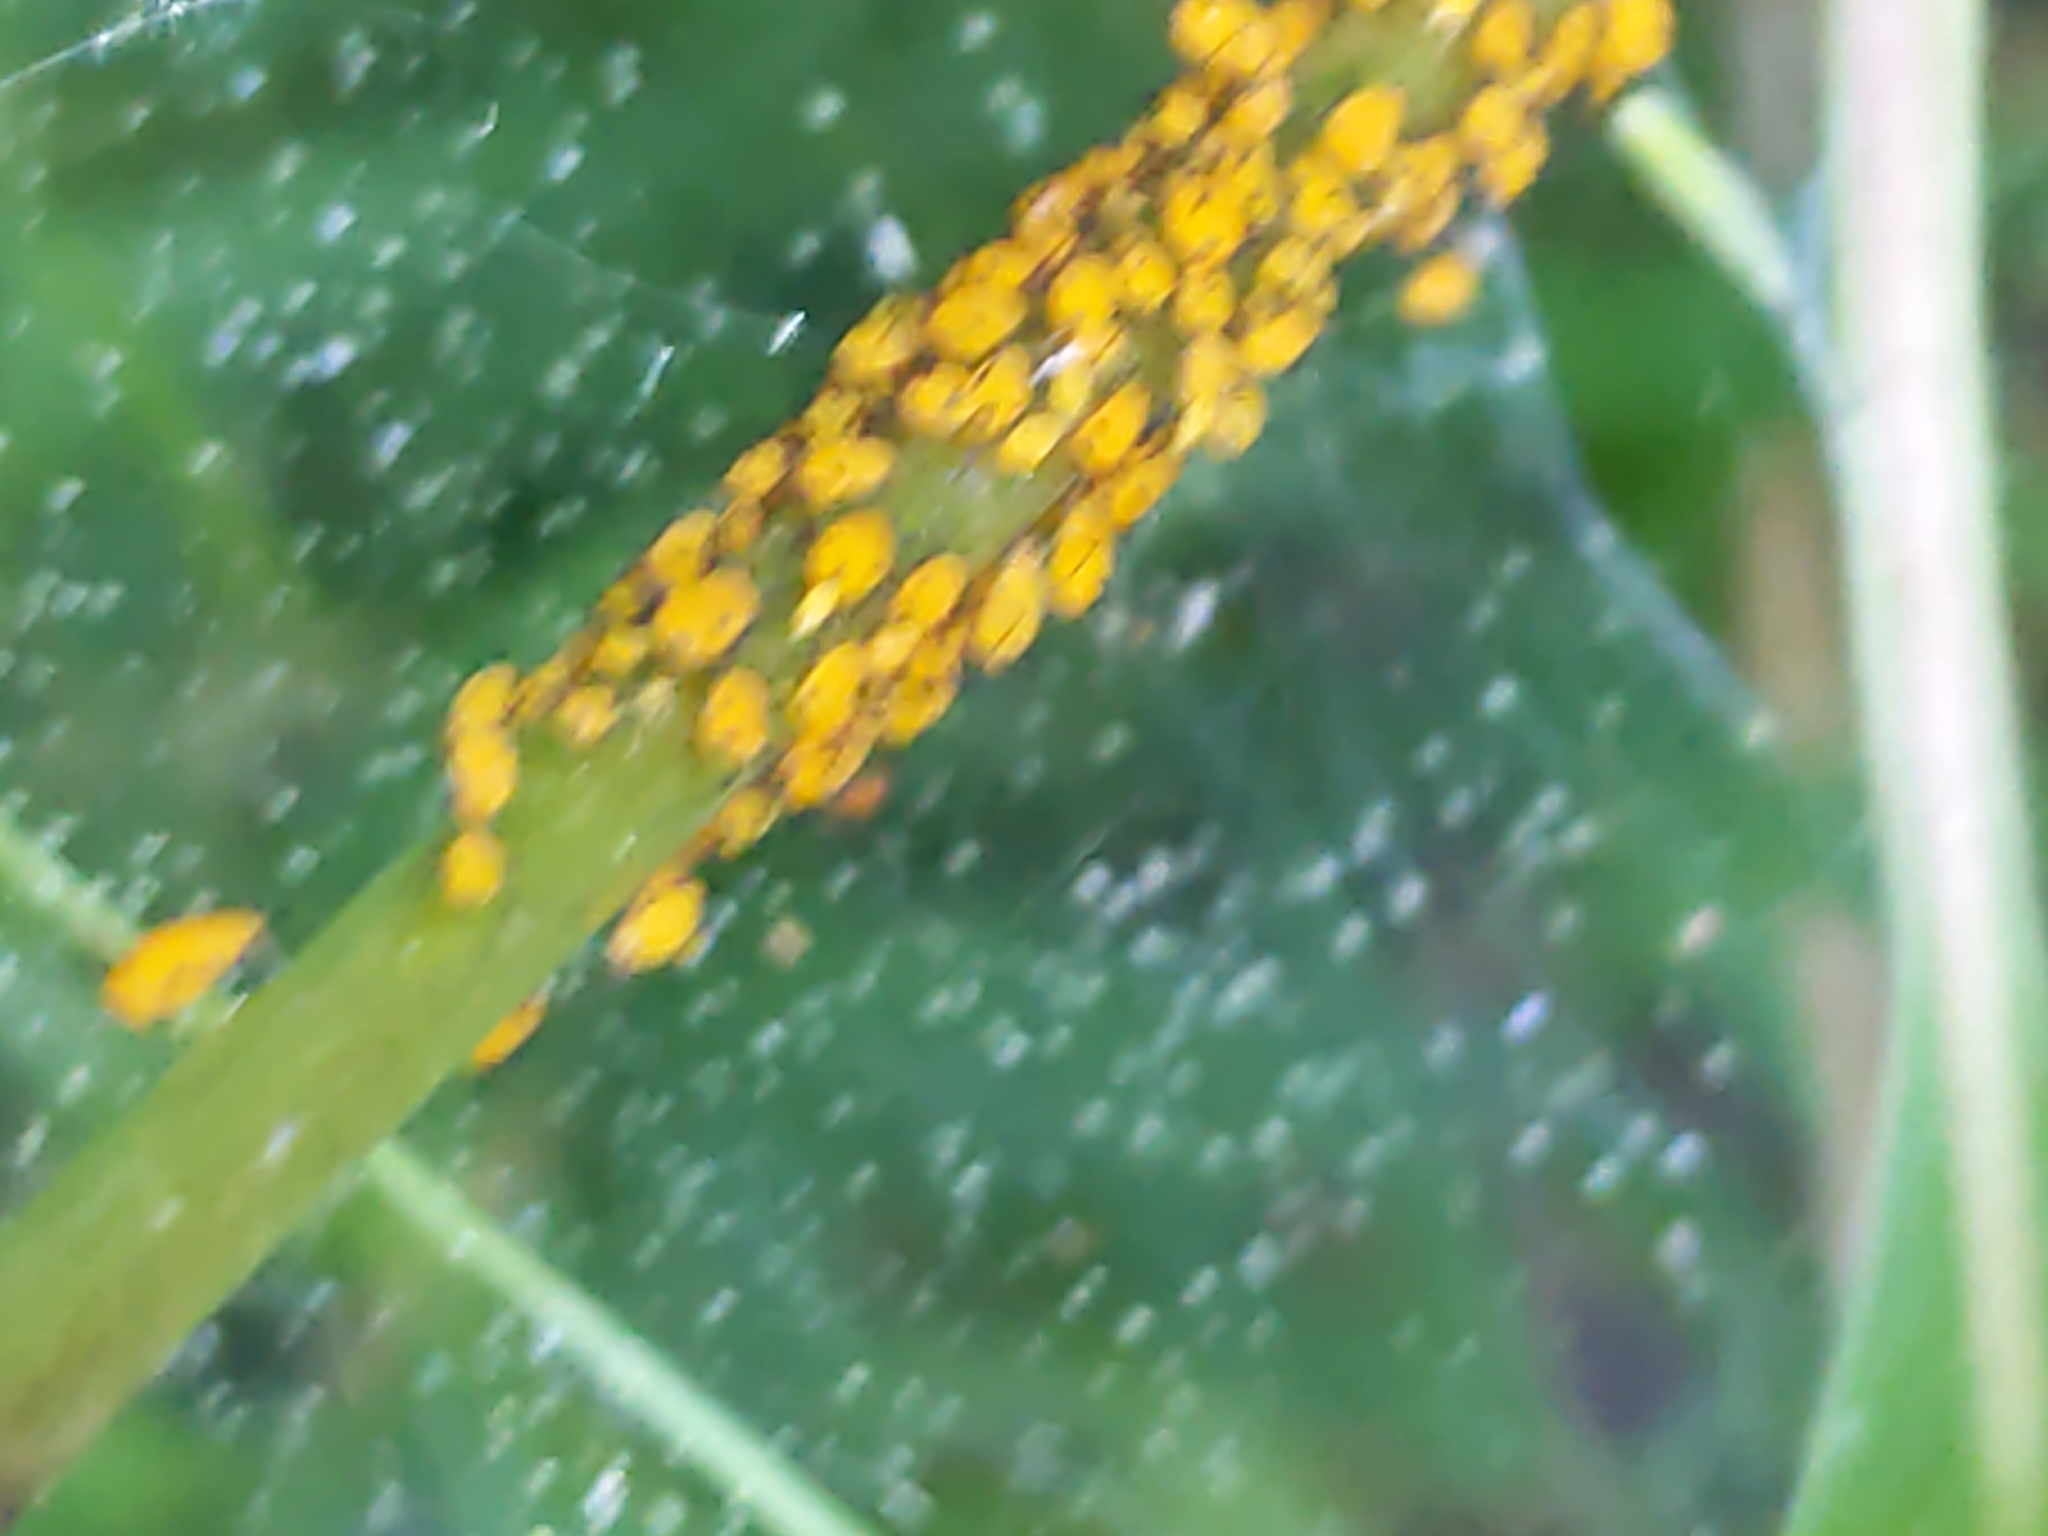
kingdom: Animalia
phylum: Arthropoda
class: Insecta
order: Hemiptera
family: Aphididae
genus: Aphis
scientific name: Aphis nerii
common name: Oleander aphid
